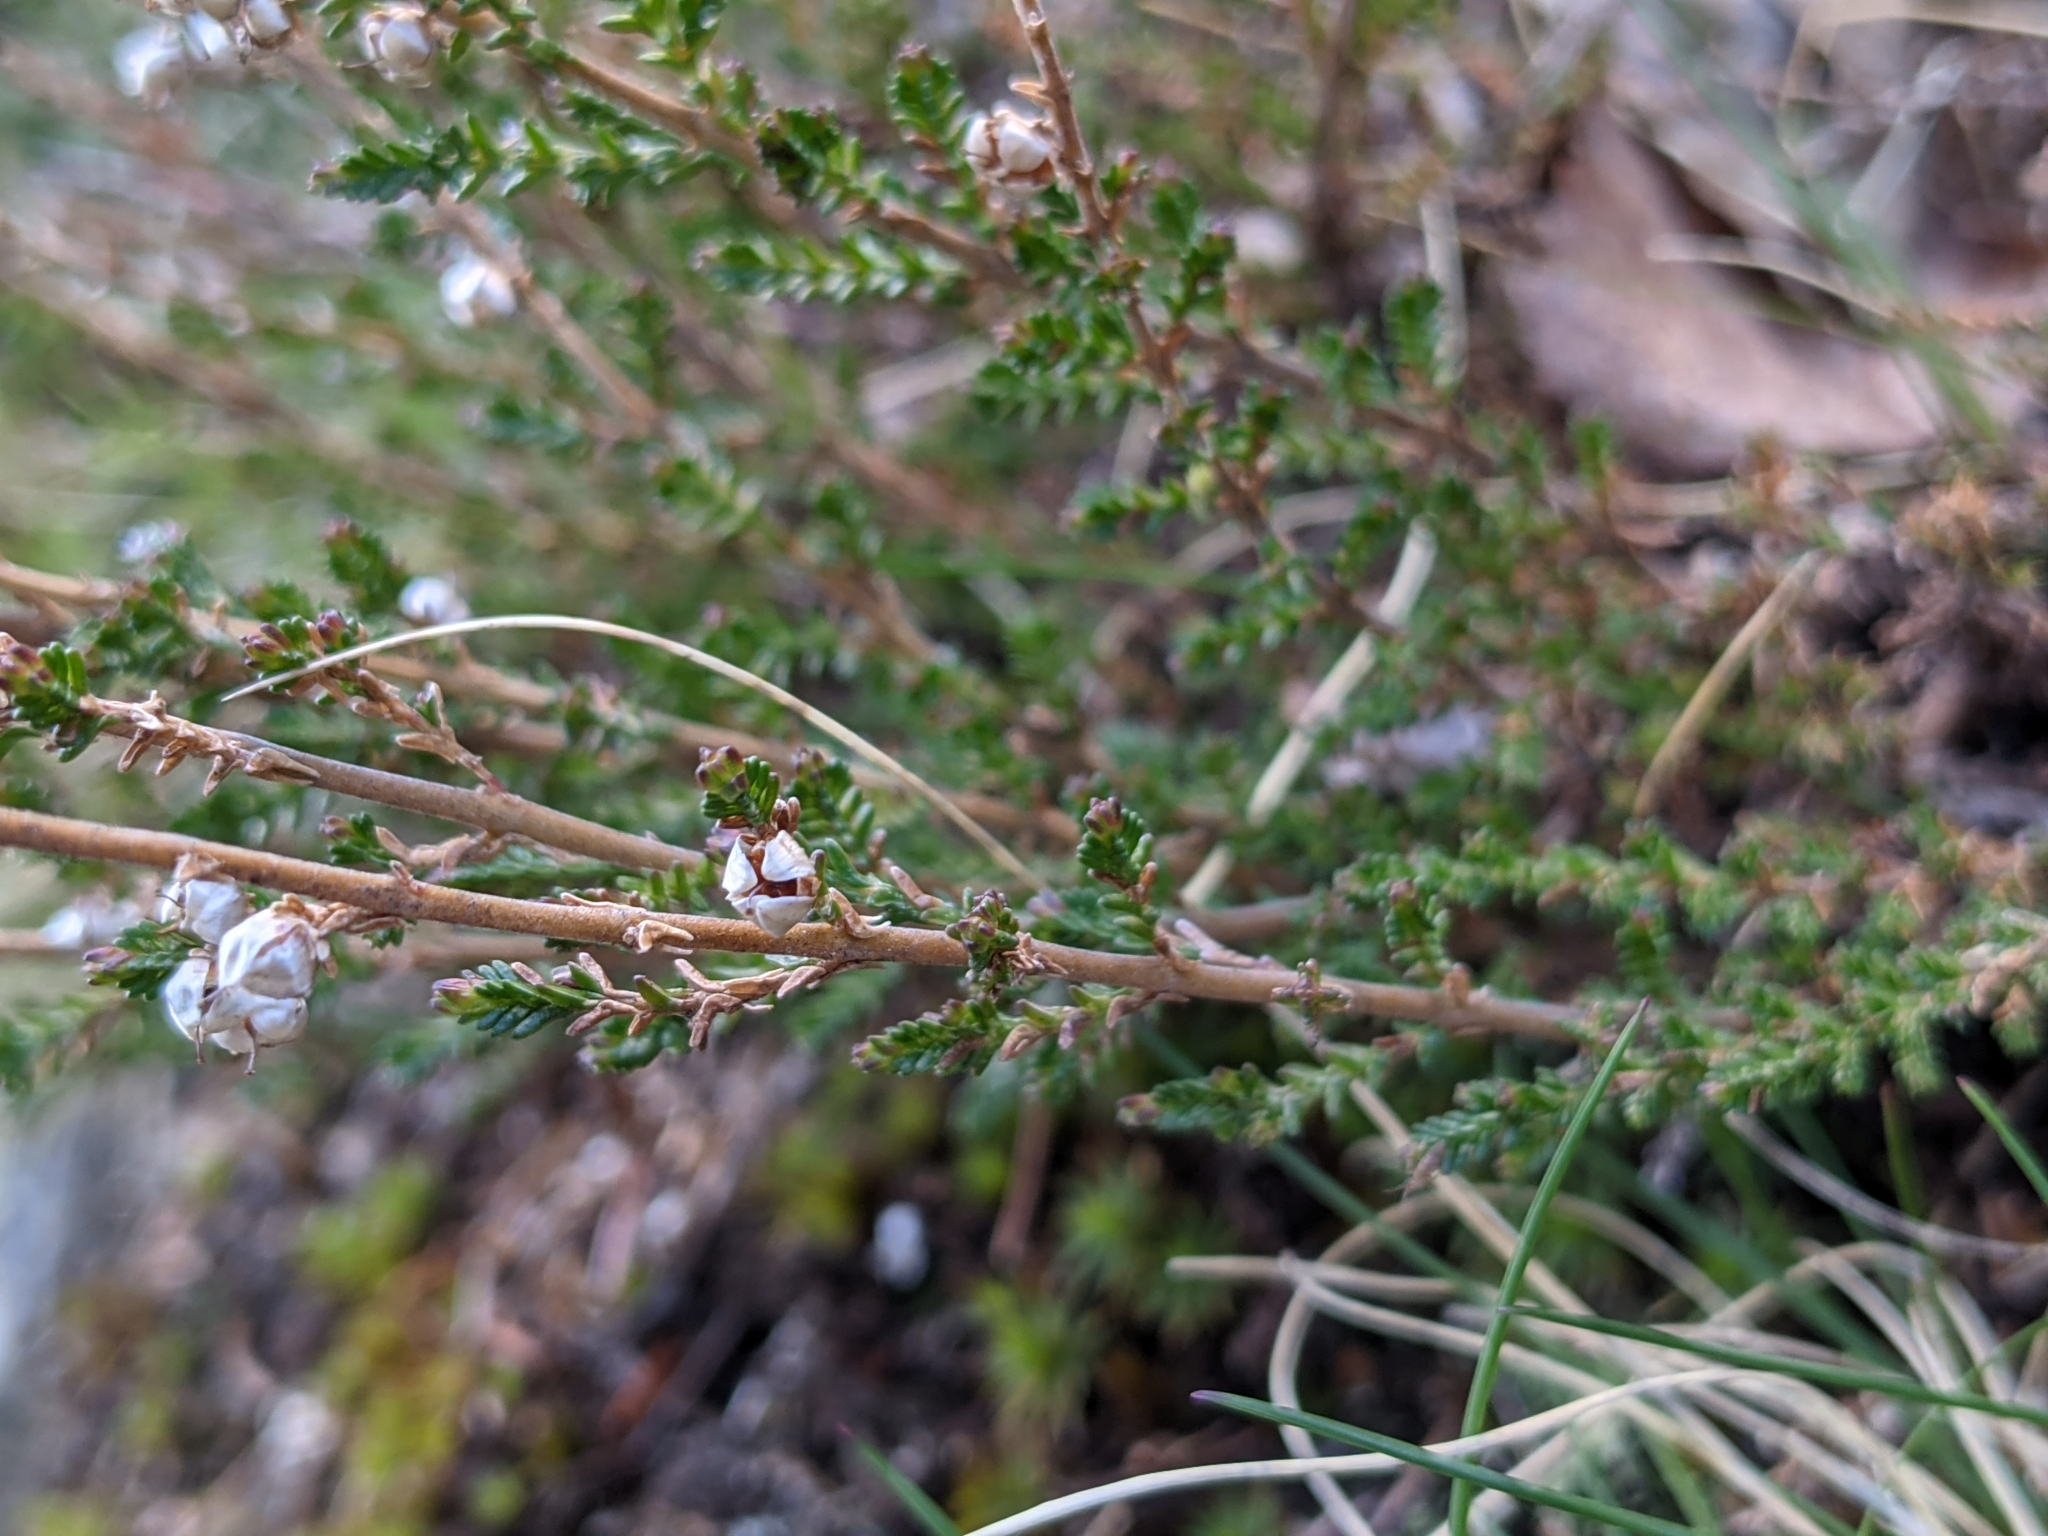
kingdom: Plantae
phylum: Tracheophyta
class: Magnoliopsida
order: Ericales
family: Ericaceae
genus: Calluna
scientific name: Calluna vulgaris
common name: Heather
